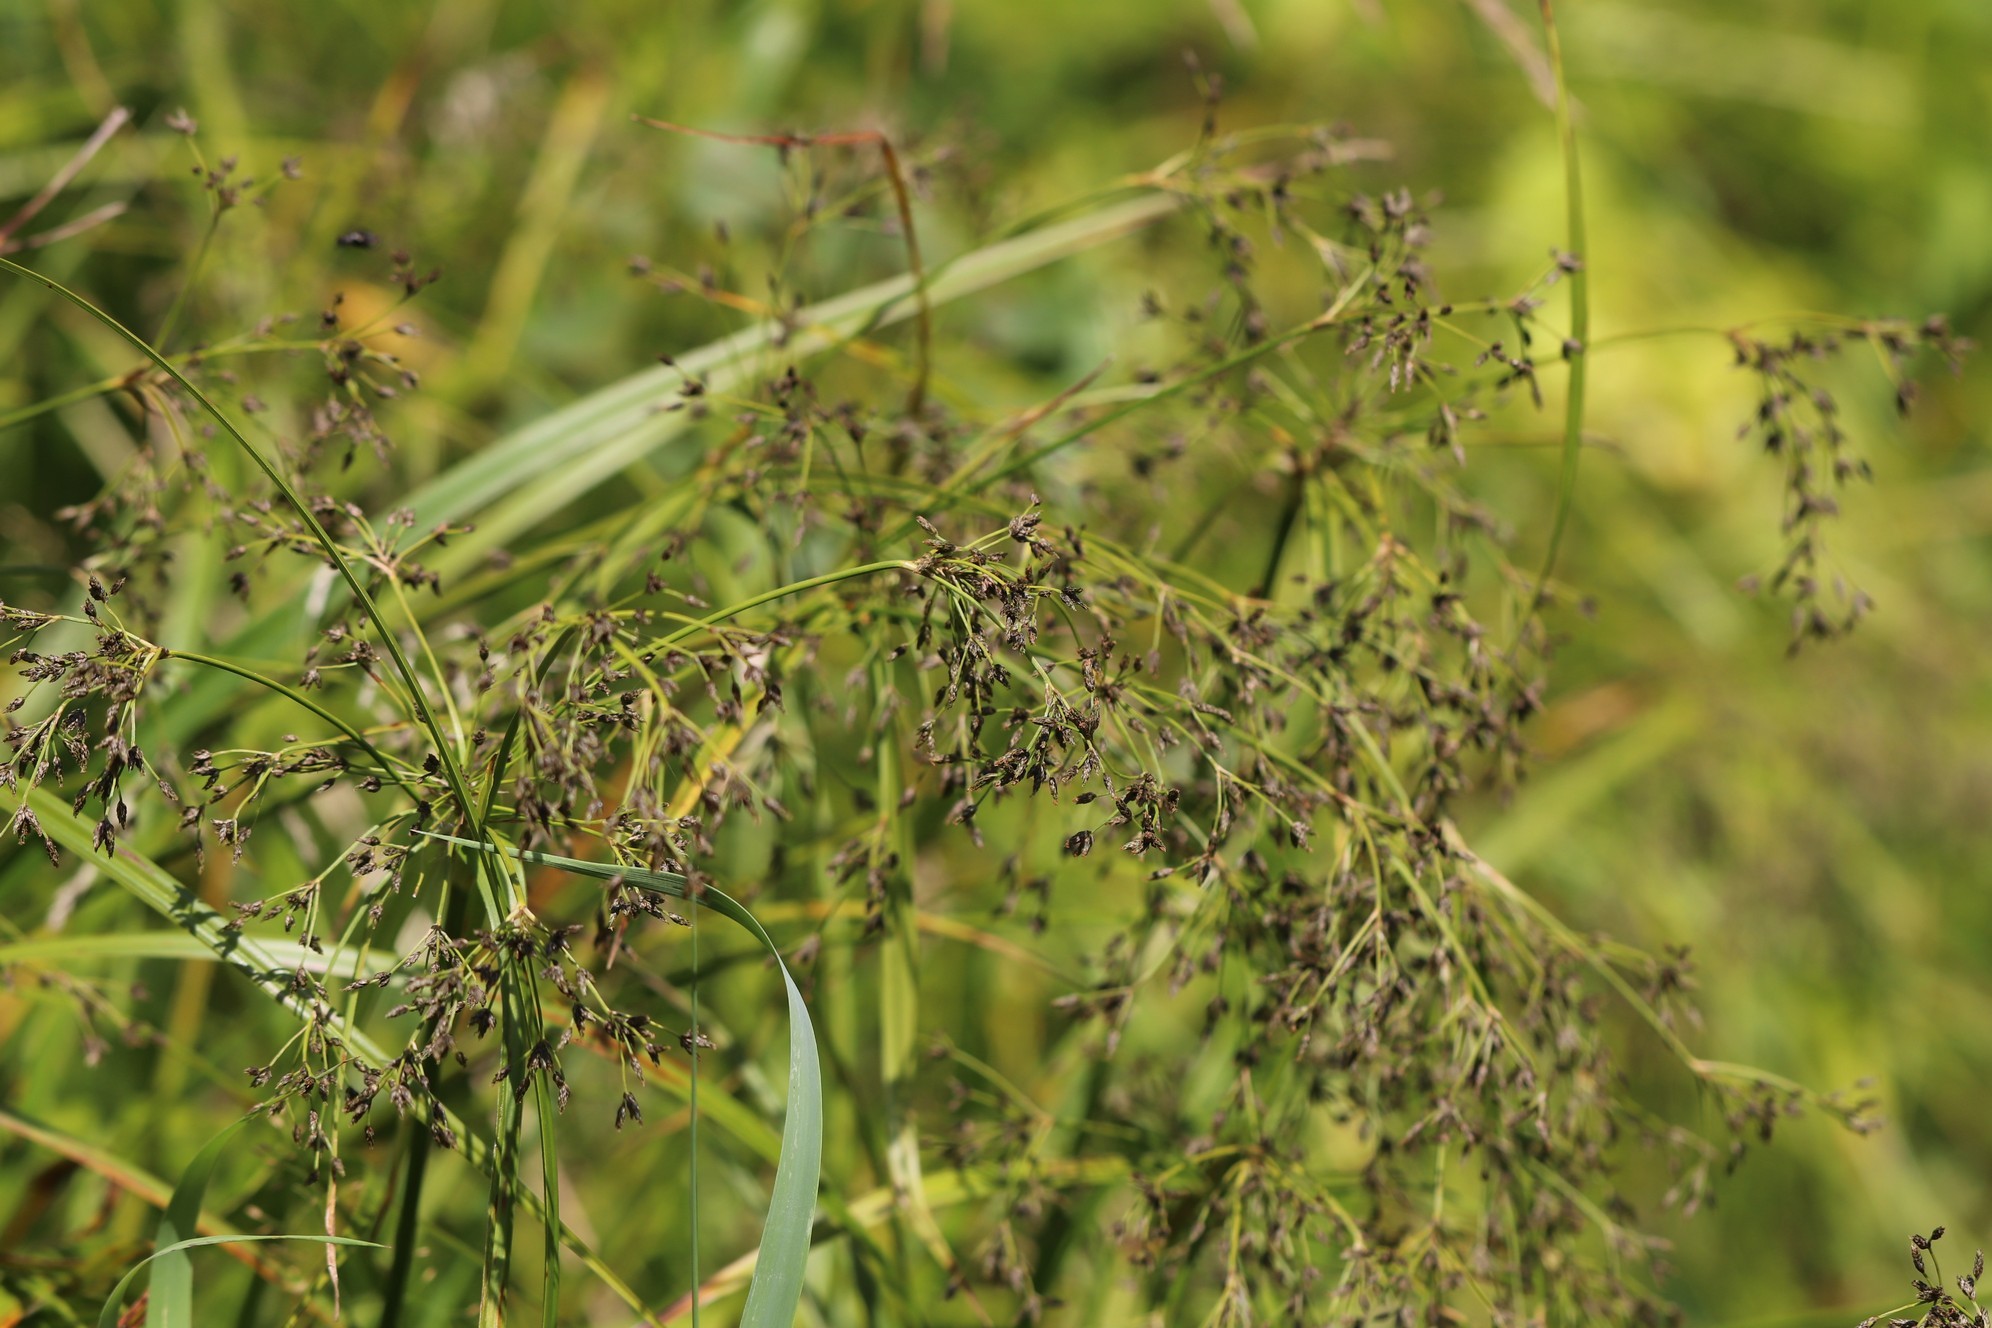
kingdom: Plantae
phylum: Tracheophyta
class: Liliopsida
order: Poales
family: Cyperaceae
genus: Scirpus
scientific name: Scirpus sylvaticus
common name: Wood club-rush
